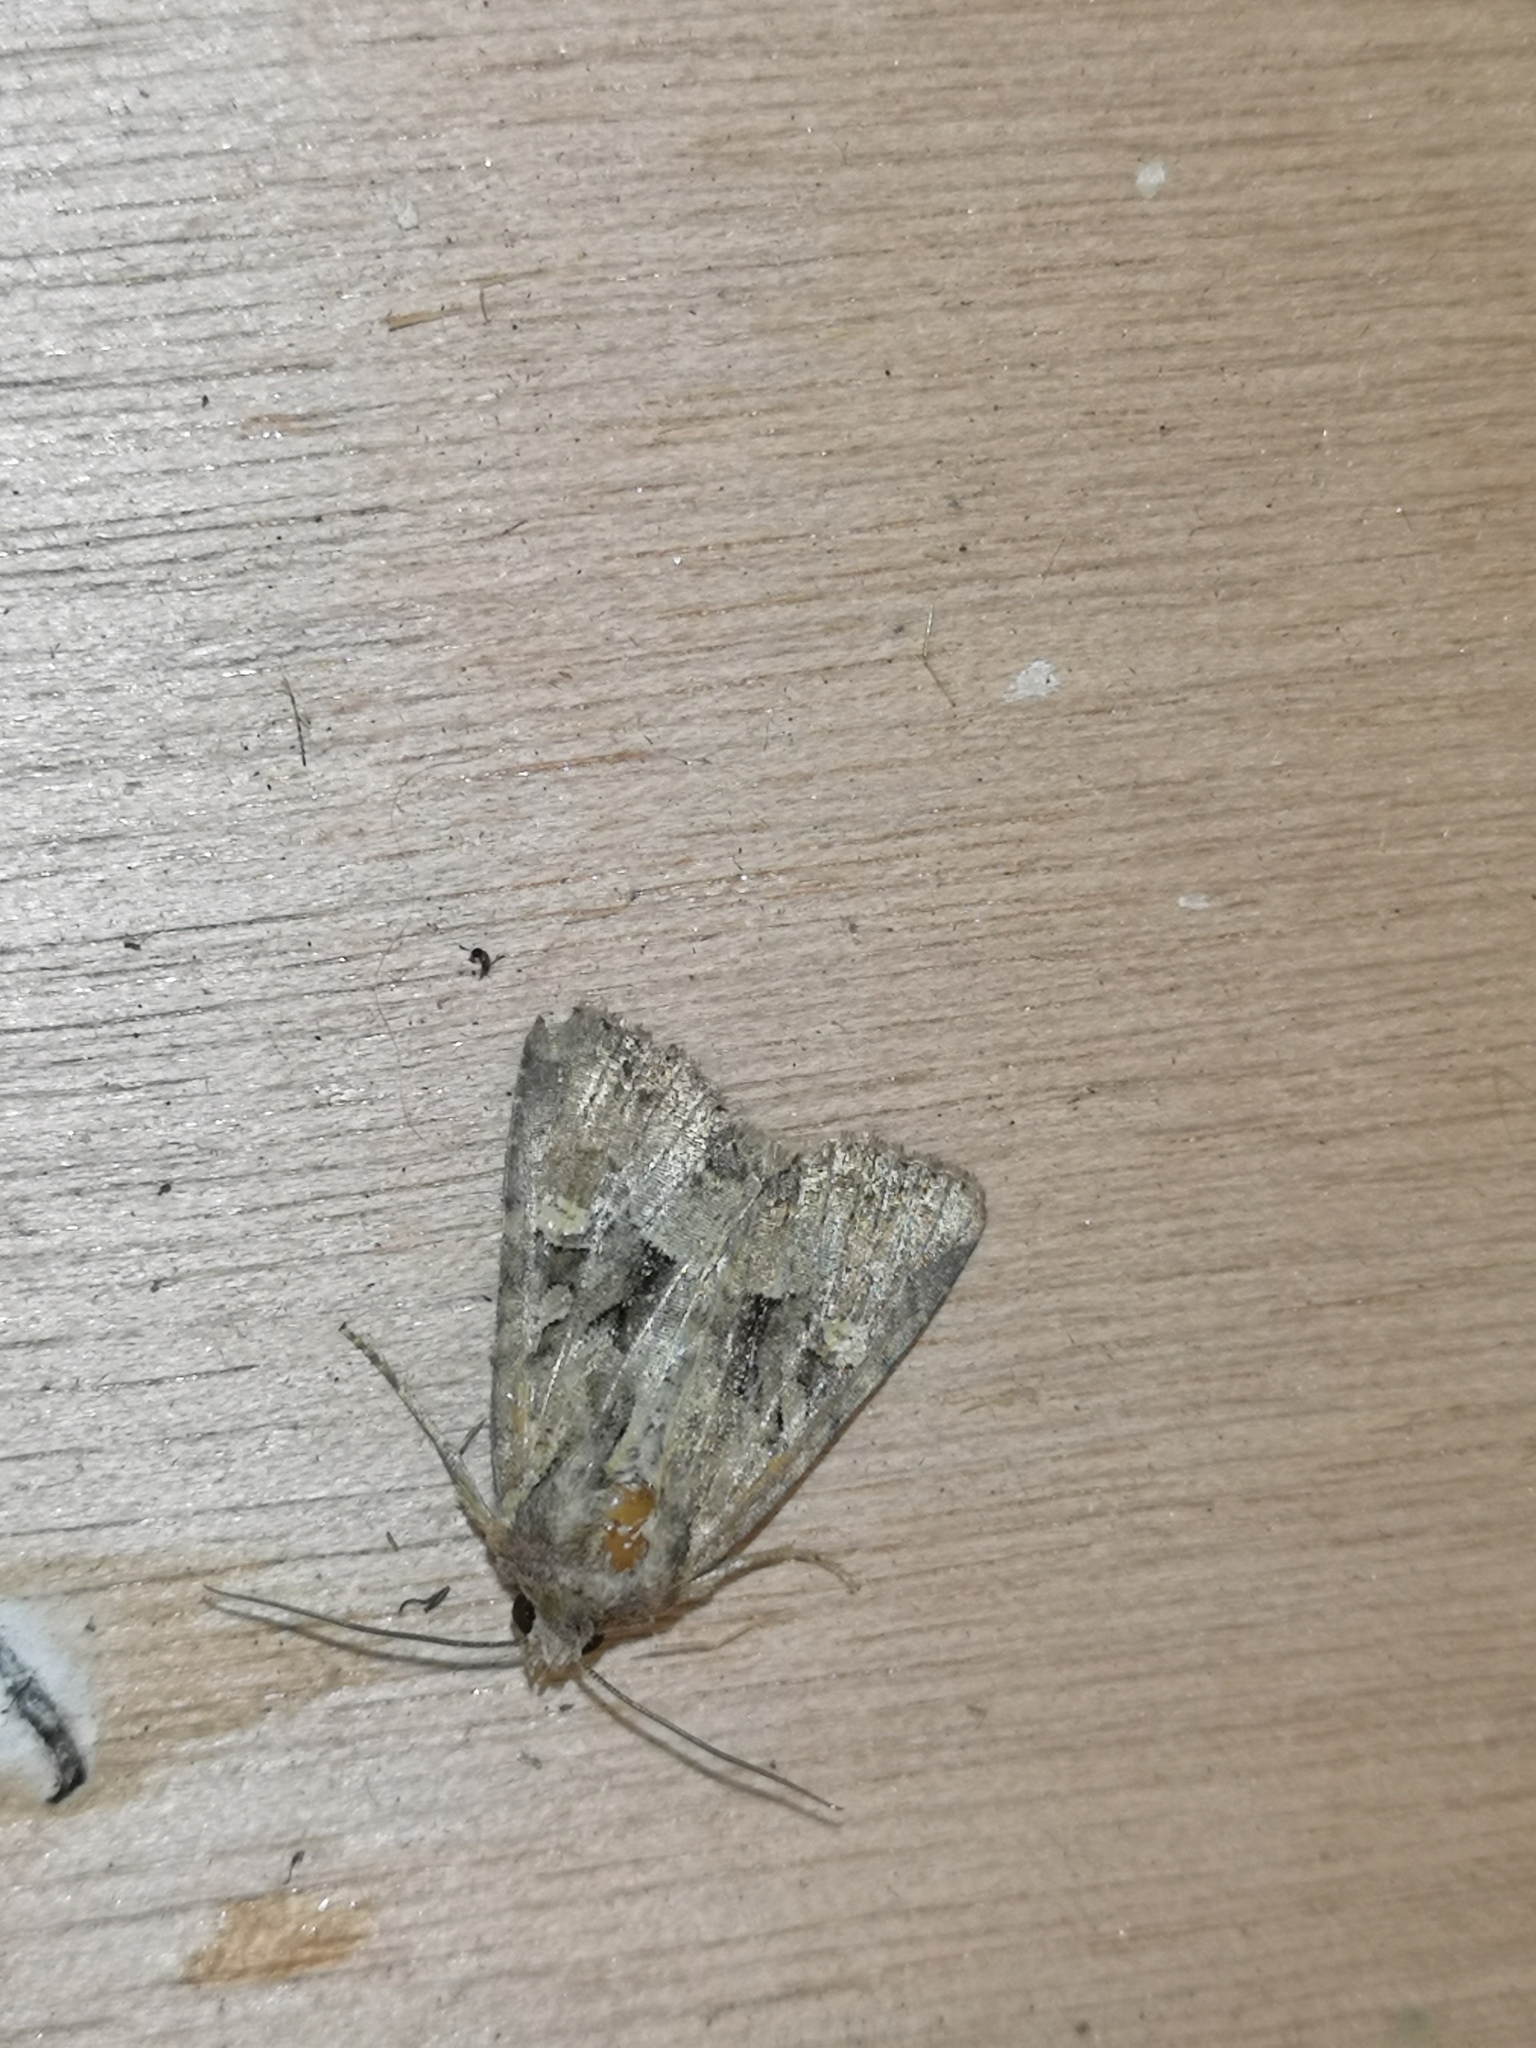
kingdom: Animalia
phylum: Arthropoda
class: Insecta
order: Lepidoptera
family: Noctuidae
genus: Mesapamea
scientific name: Mesapamea
